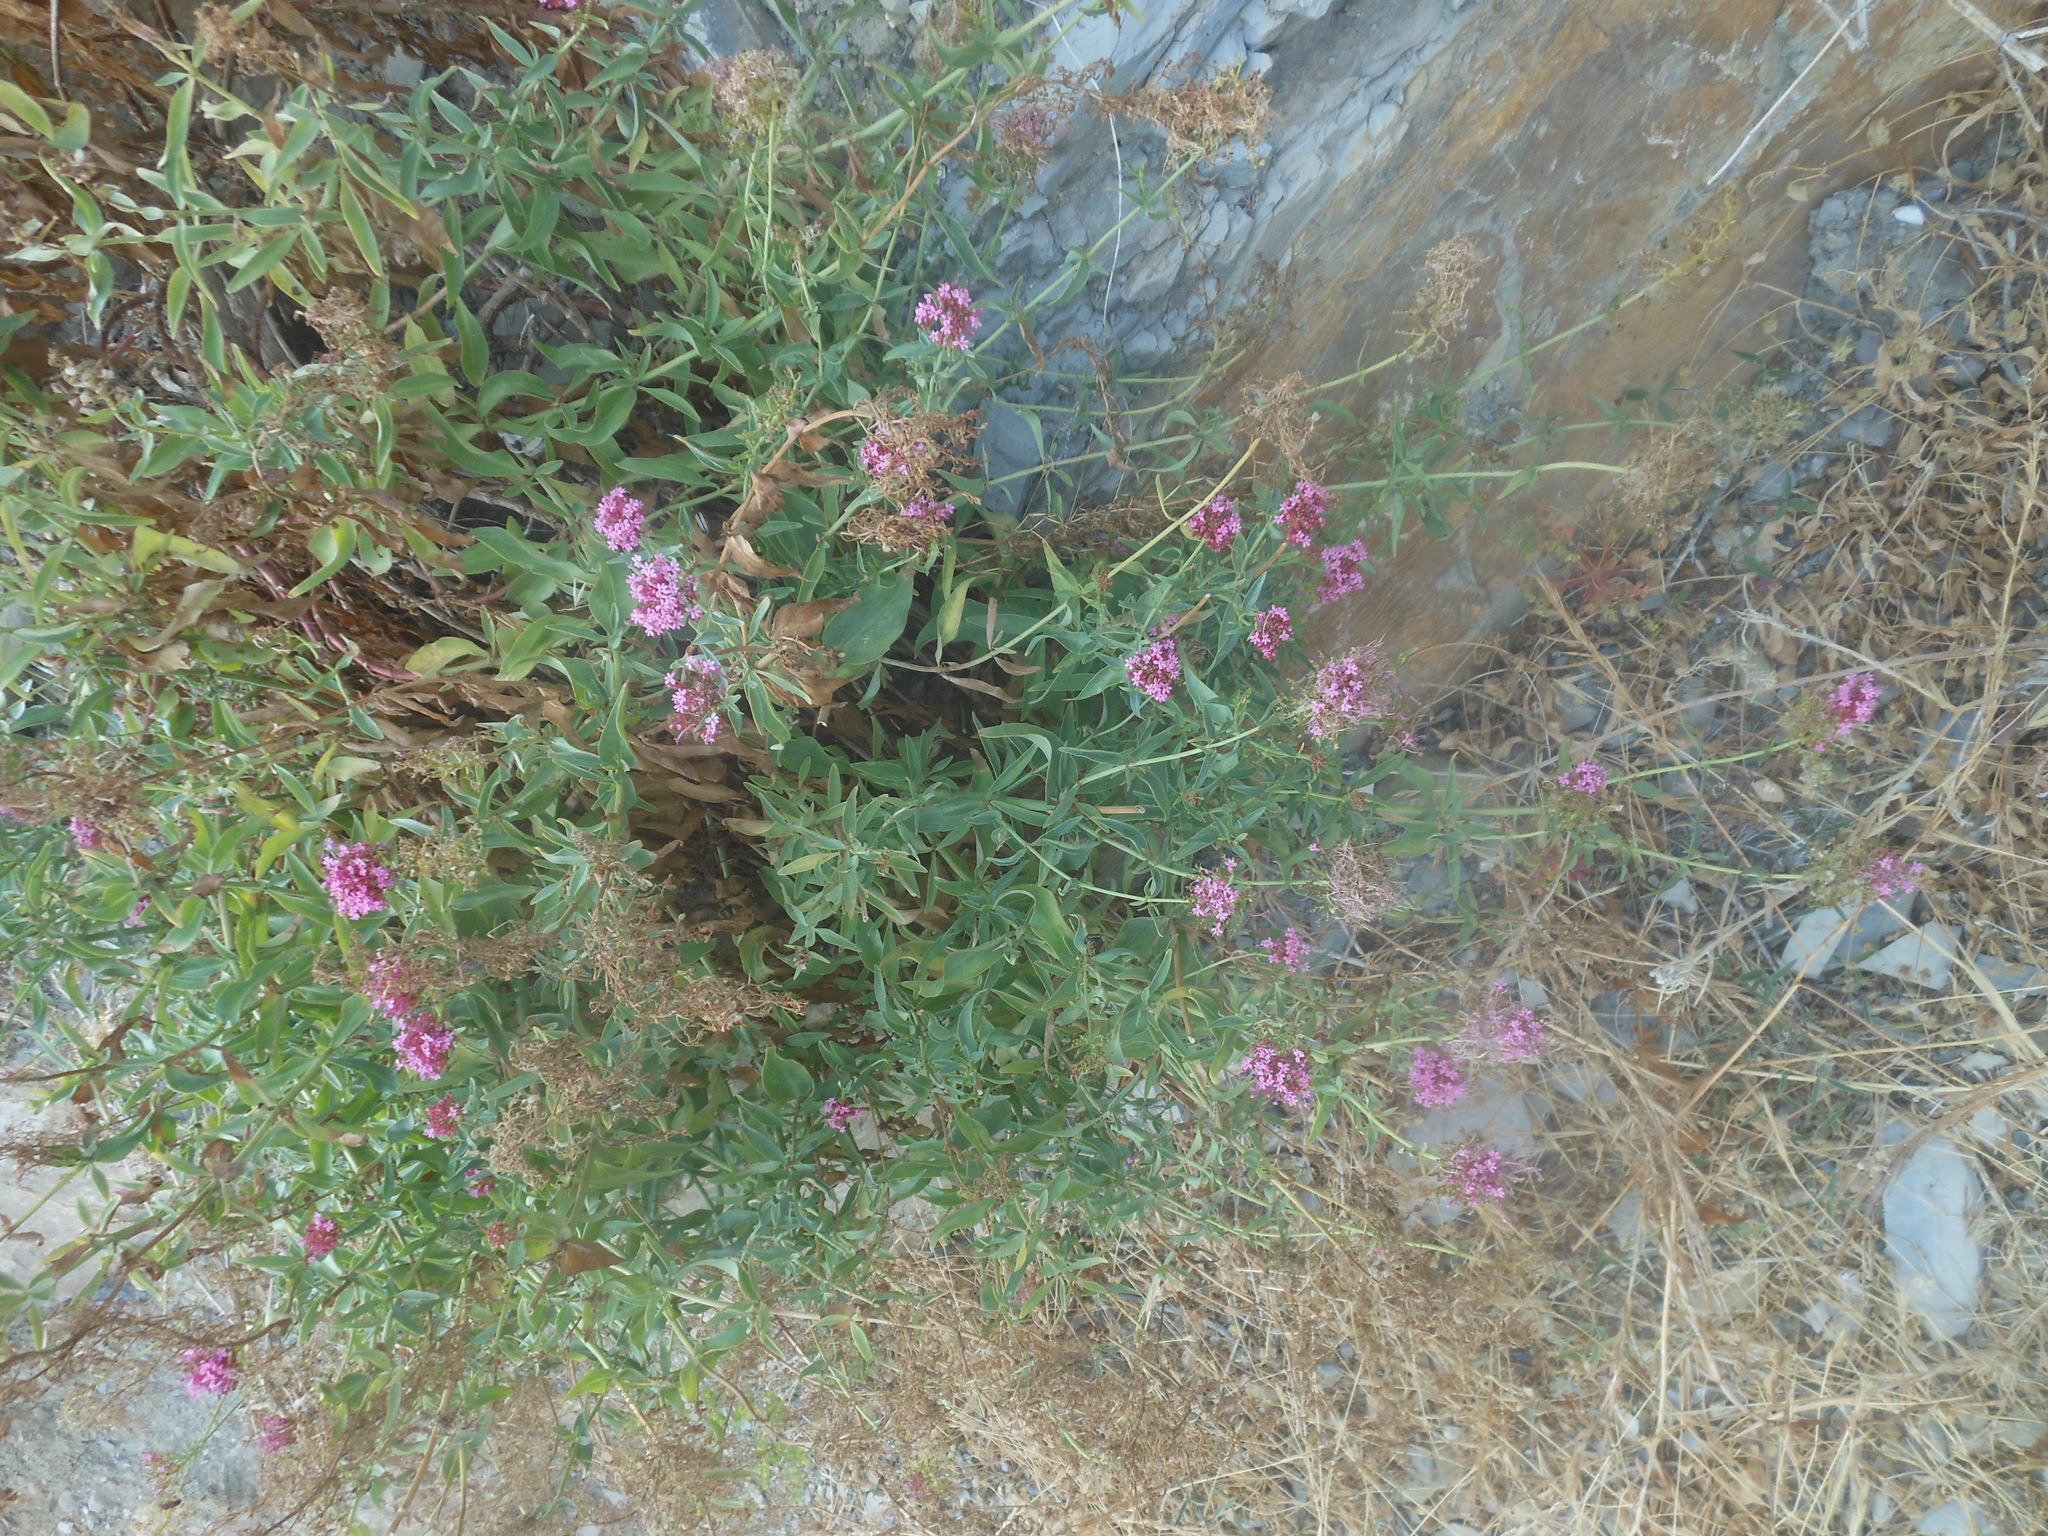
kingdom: Plantae
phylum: Tracheophyta
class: Magnoliopsida
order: Dipsacales
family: Caprifoliaceae
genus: Centranthus
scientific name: Centranthus ruber
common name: Red valerian
